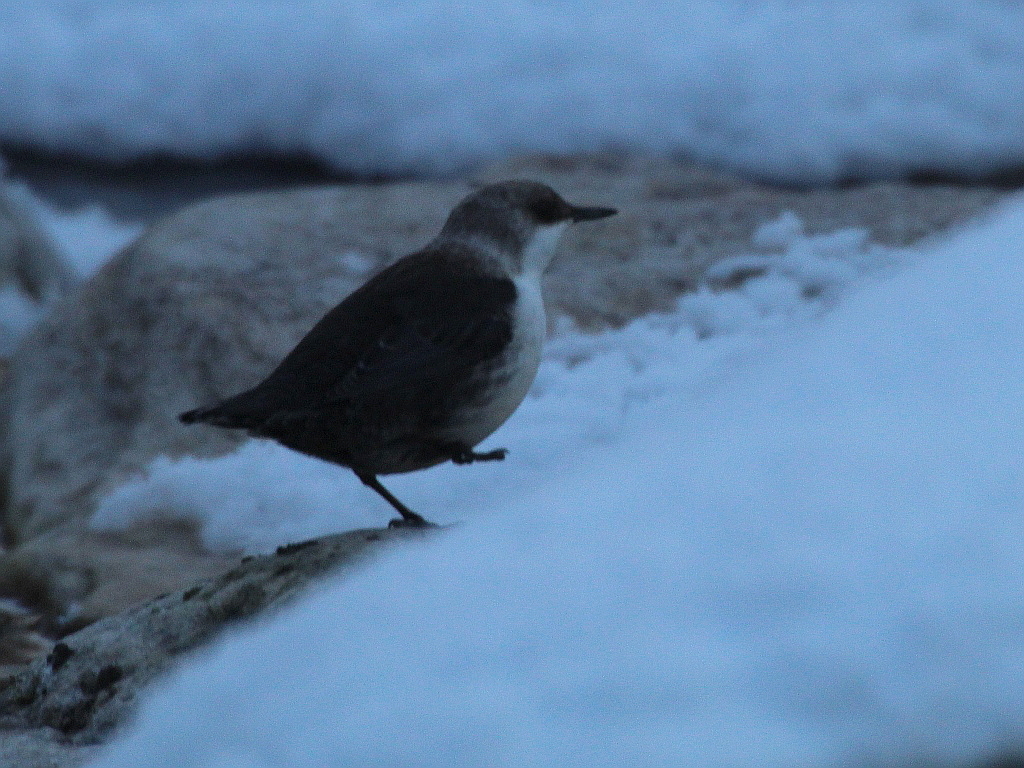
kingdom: Animalia
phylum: Chordata
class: Aves
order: Passeriformes
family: Cinclidae
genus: Cinclus
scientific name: Cinclus cinclus
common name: White-throated dipper
